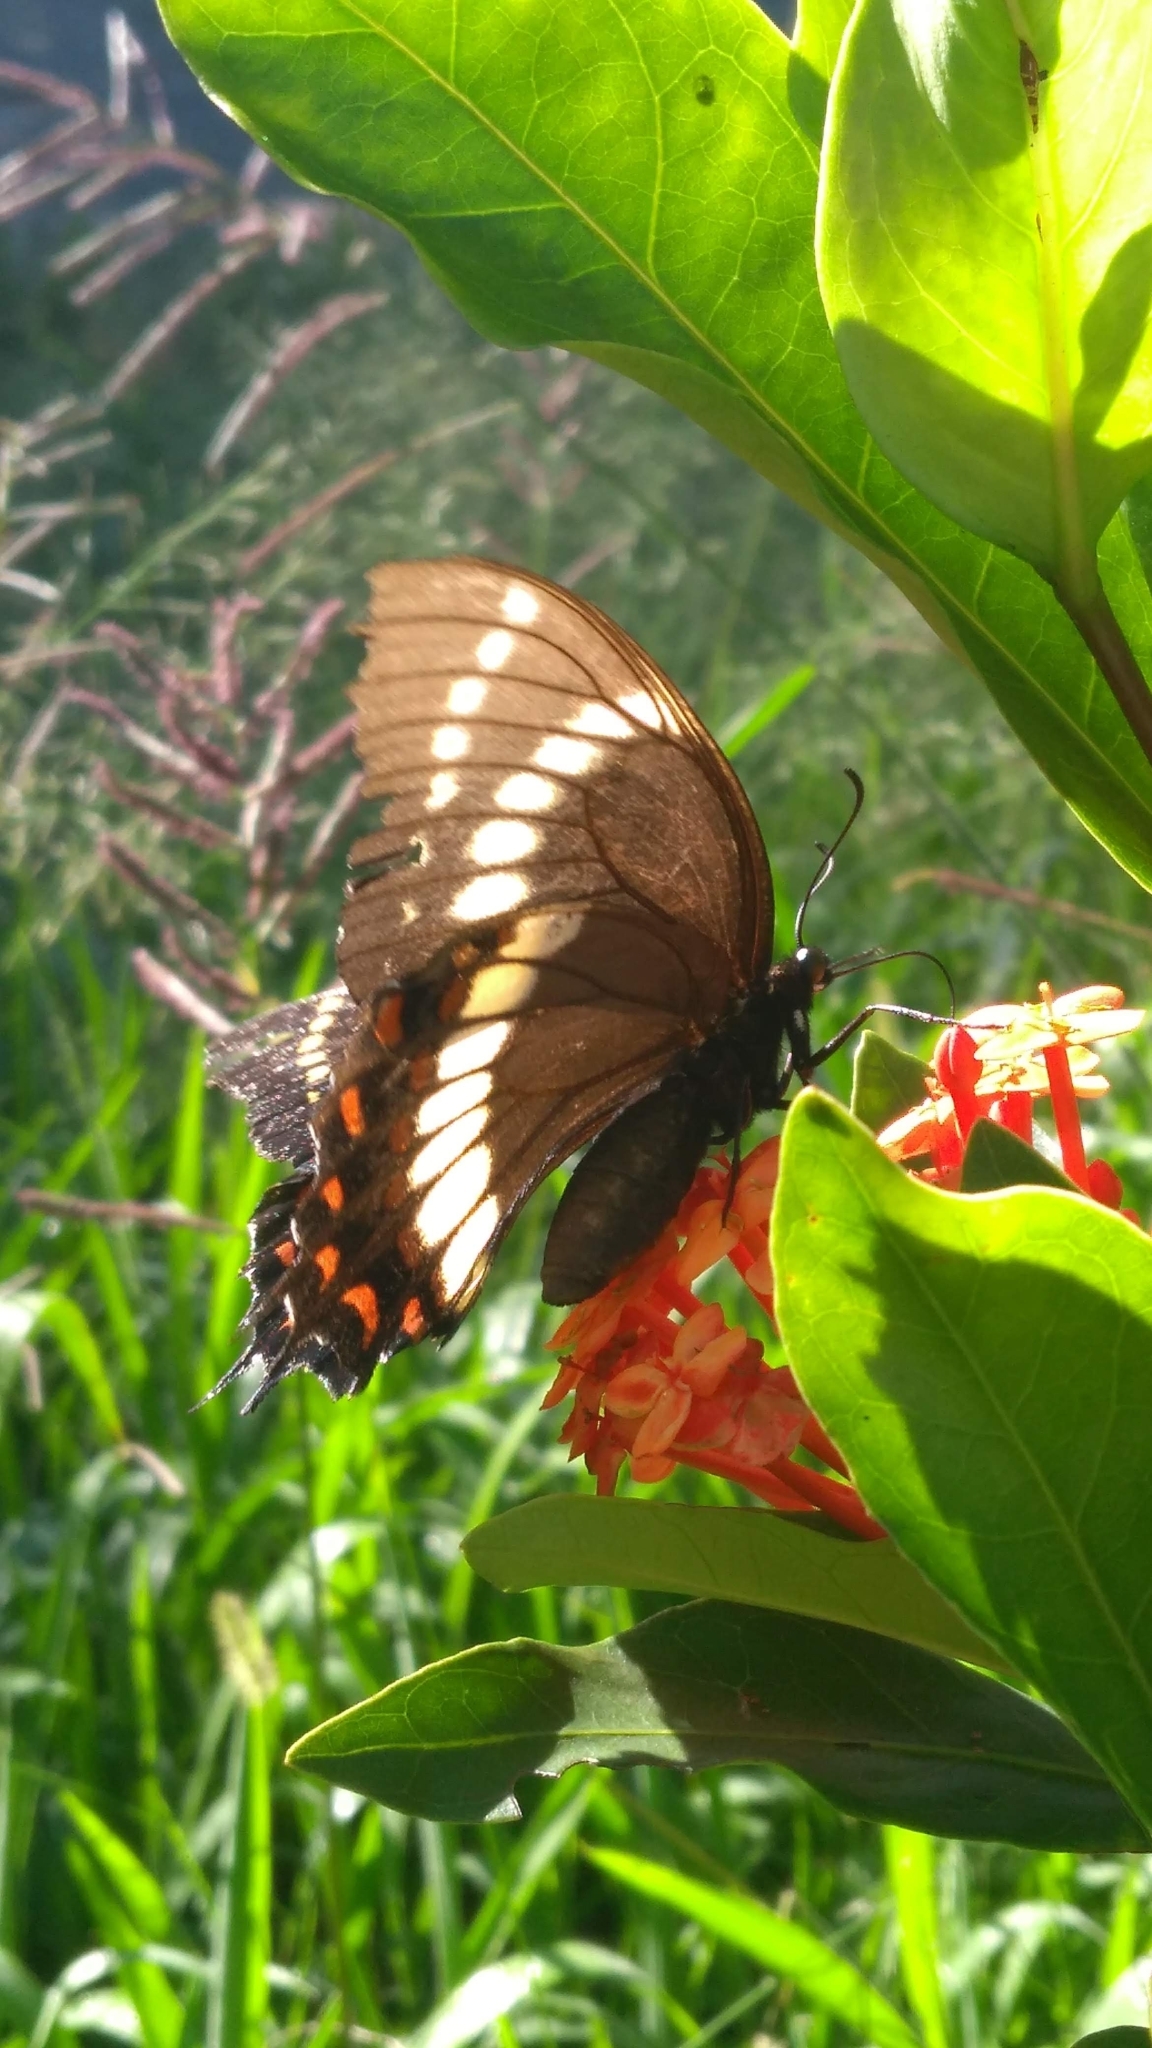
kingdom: Animalia
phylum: Arthropoda
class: Insecta
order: Lepidoptera
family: Papilionidae
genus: Papilio
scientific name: Papilio scamander
